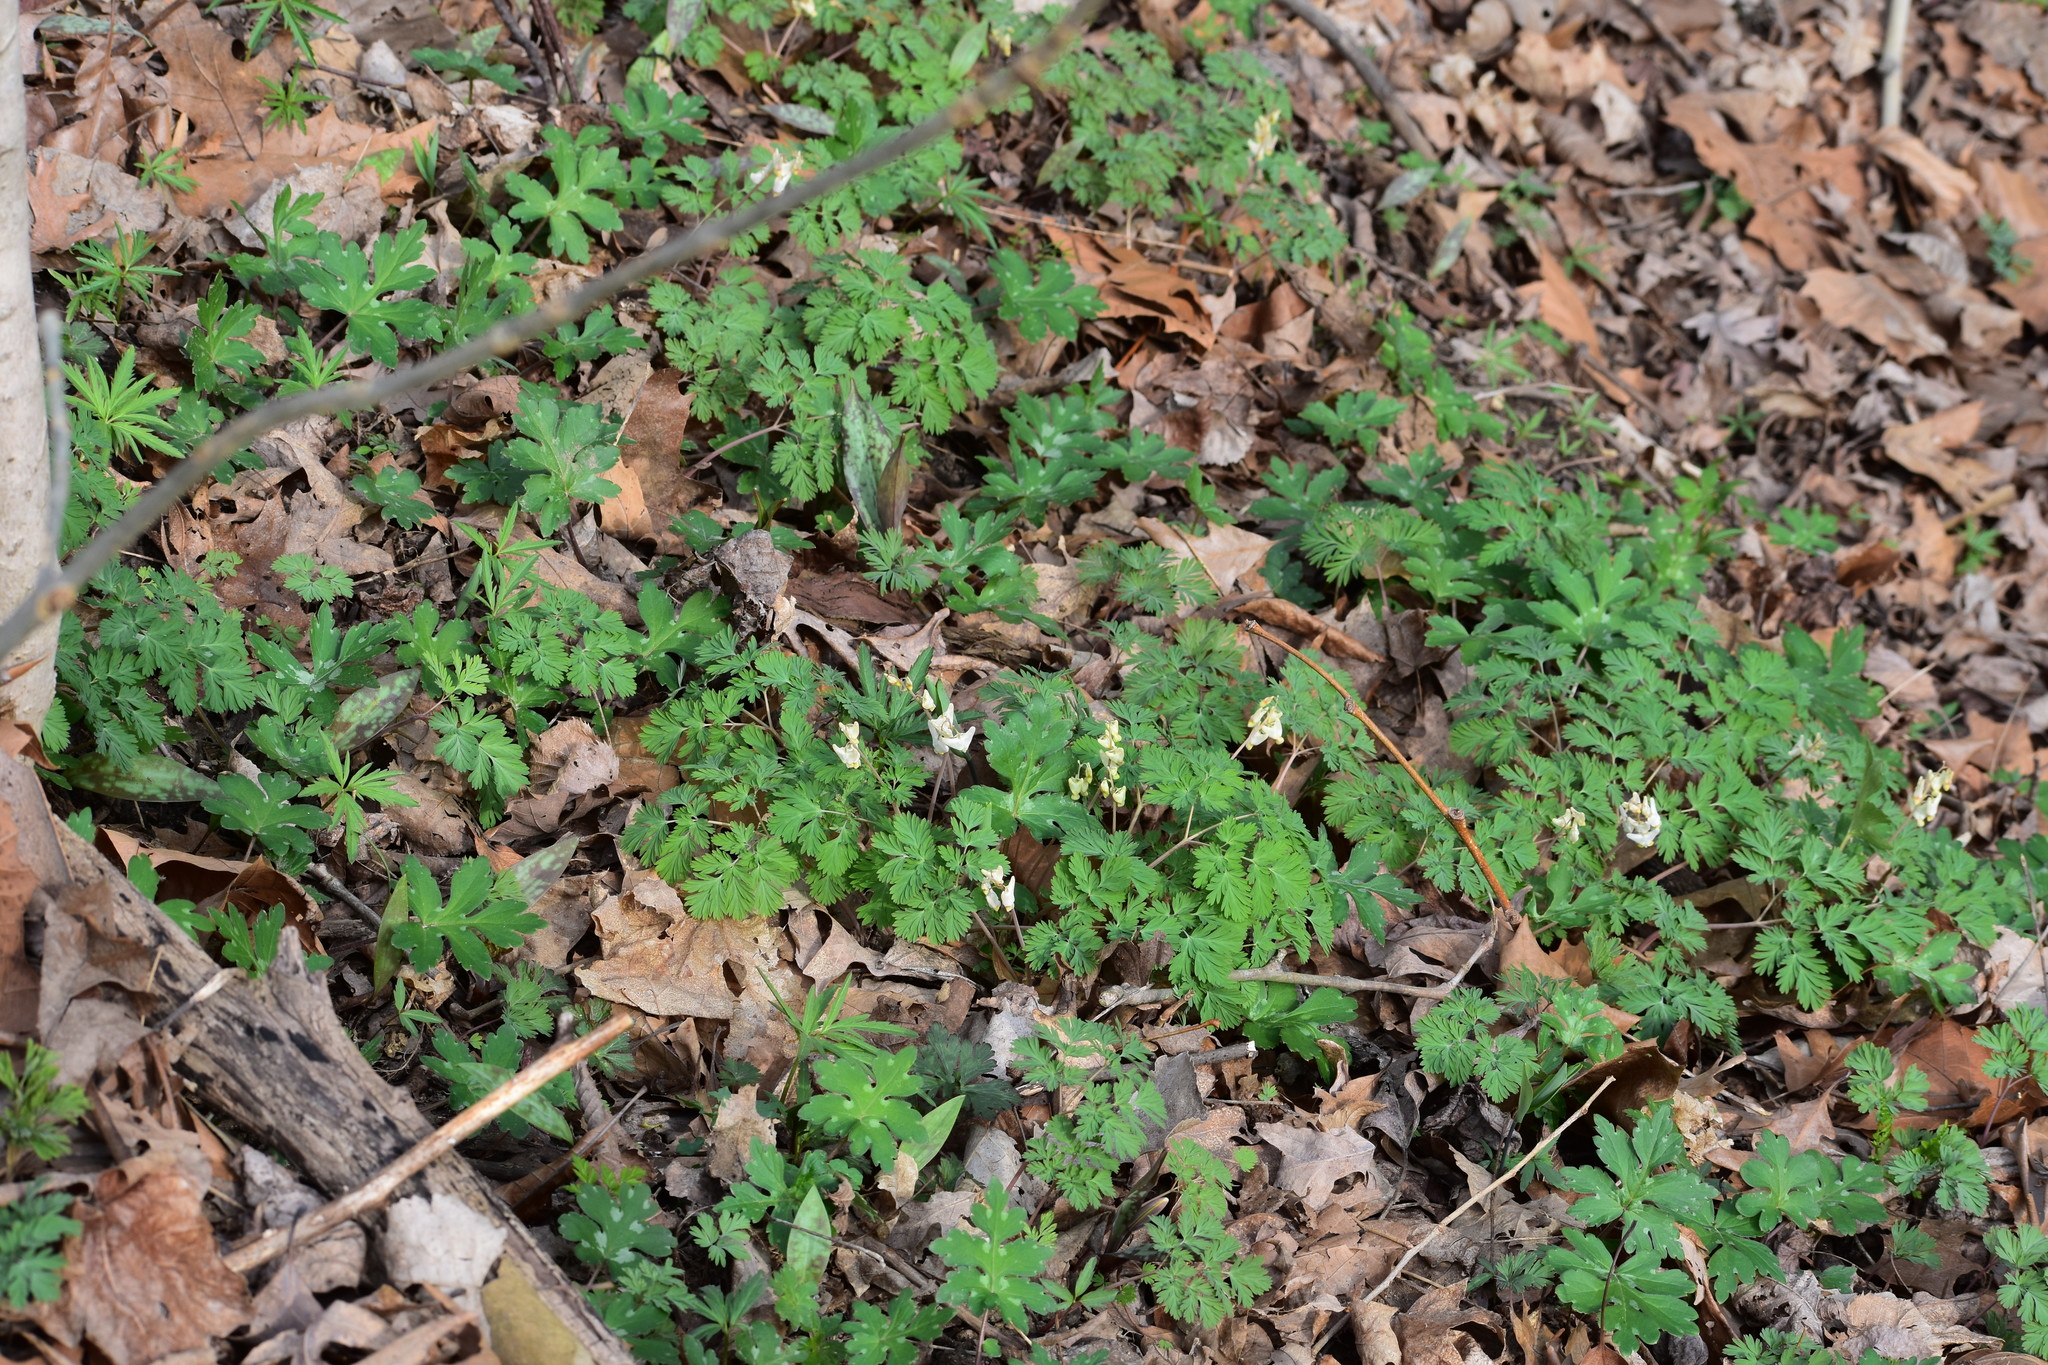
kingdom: Plantae
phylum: Tracheophyta
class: Magnoliopsida
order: Ranunculales
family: Papaveraceae
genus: Dicentra
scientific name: Dicentra cucullaria
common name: Dutchman's breeches
